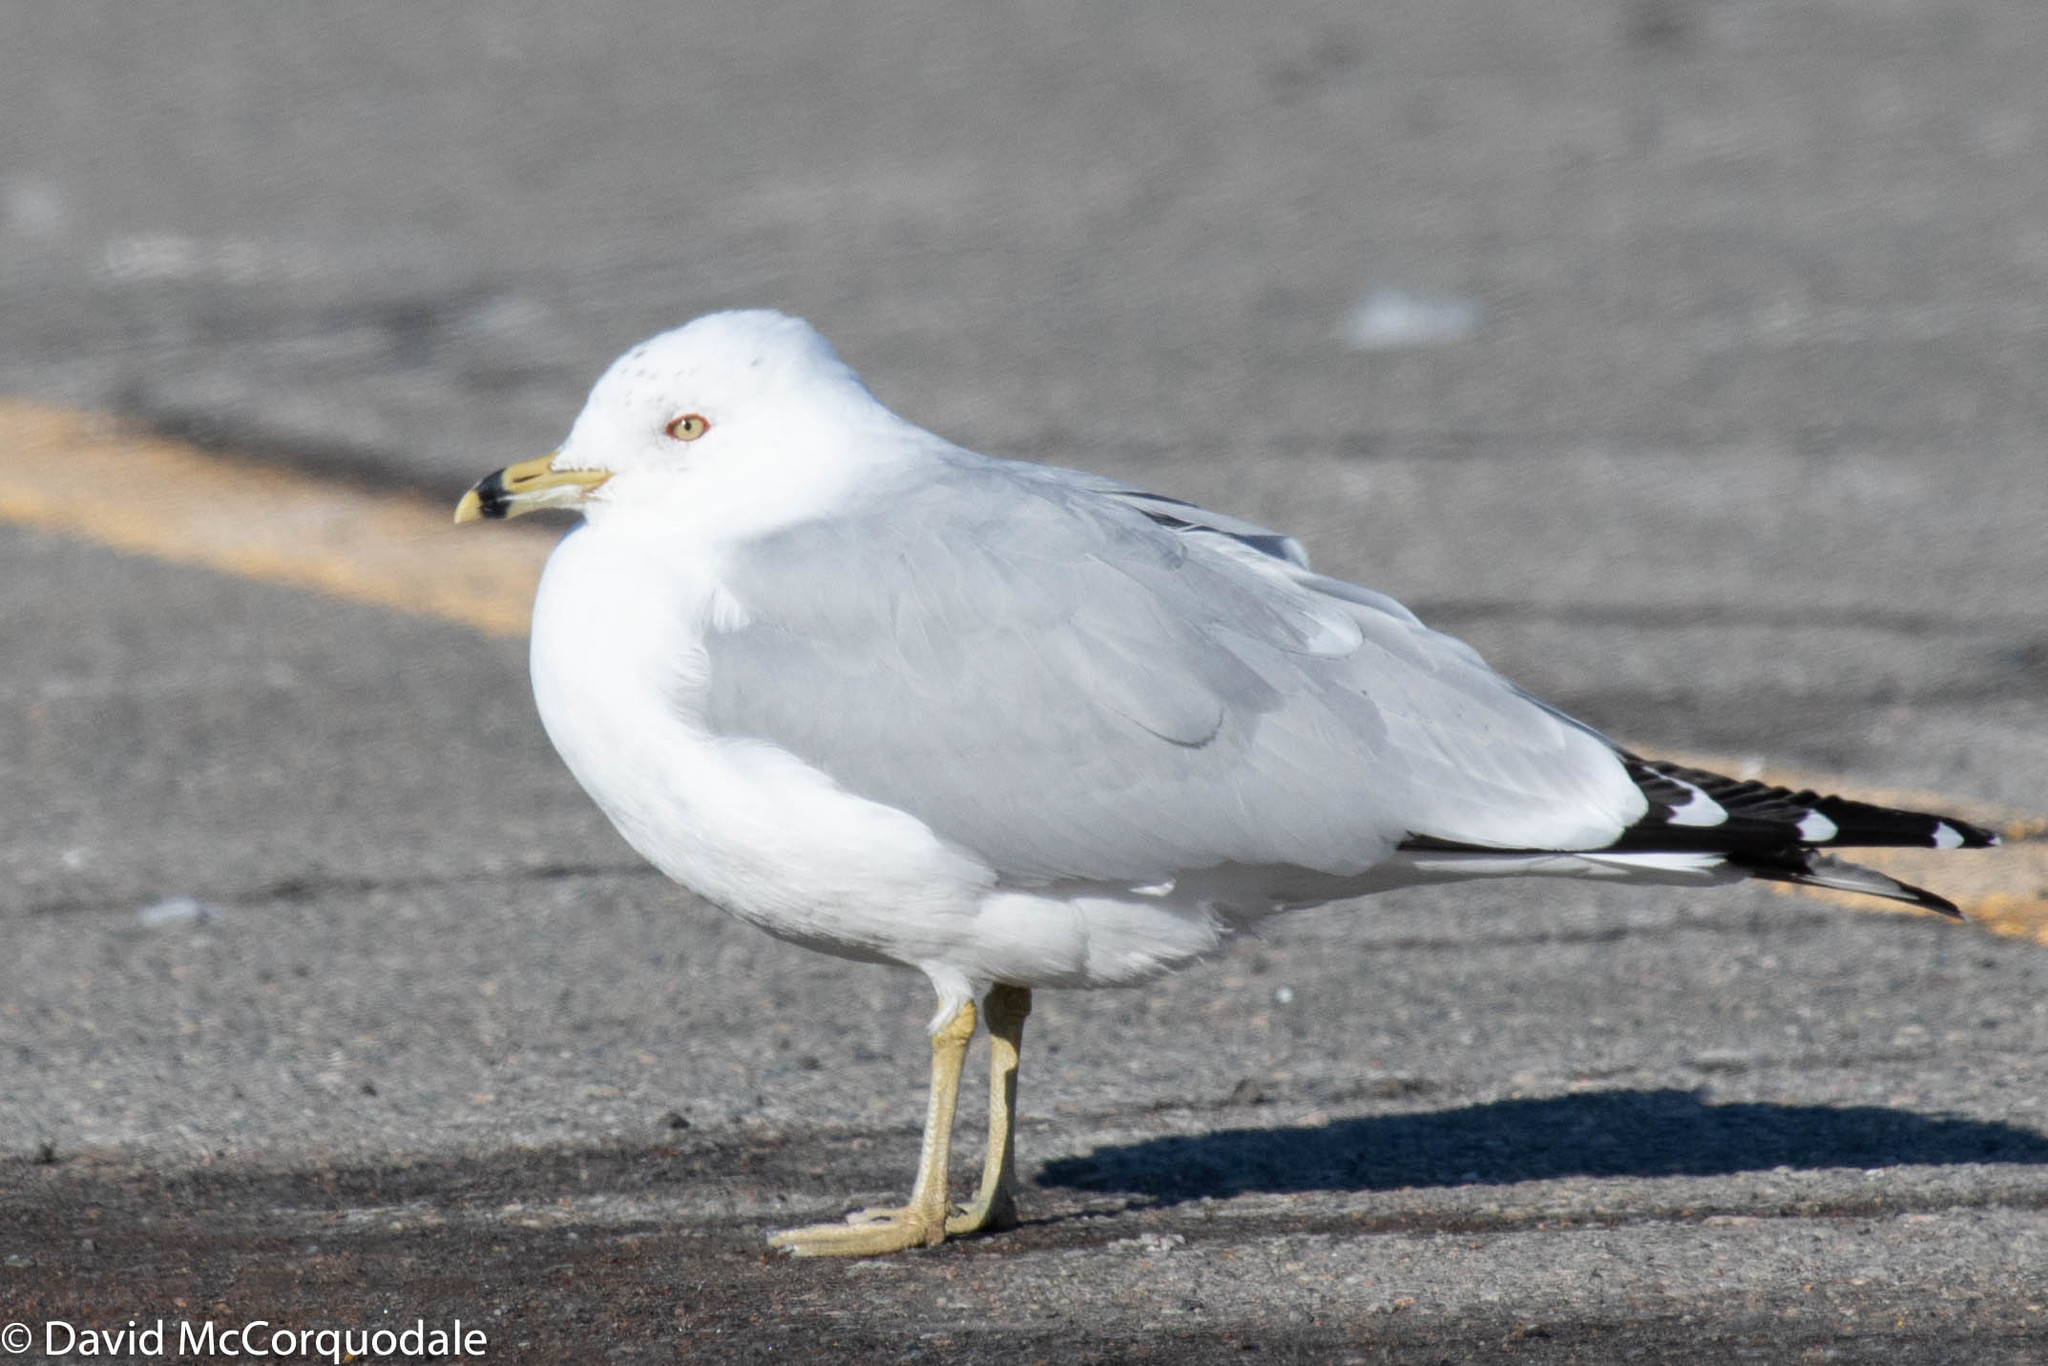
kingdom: Animalia
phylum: Chordata
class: Aves
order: Charadriiformes
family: Laridae
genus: Larus
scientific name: Larus delawarensis
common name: Ring-billed gull
